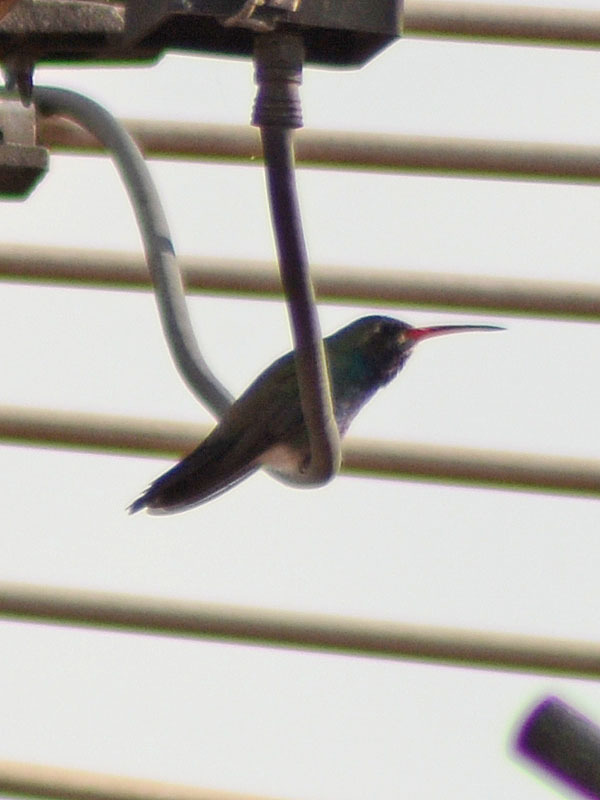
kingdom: Animalia
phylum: Chordata
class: Aves
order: Apodiformes
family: Trochilidae
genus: Cynanthus
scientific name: Cynanthus latirostris
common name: Broad-billed hummingbird
